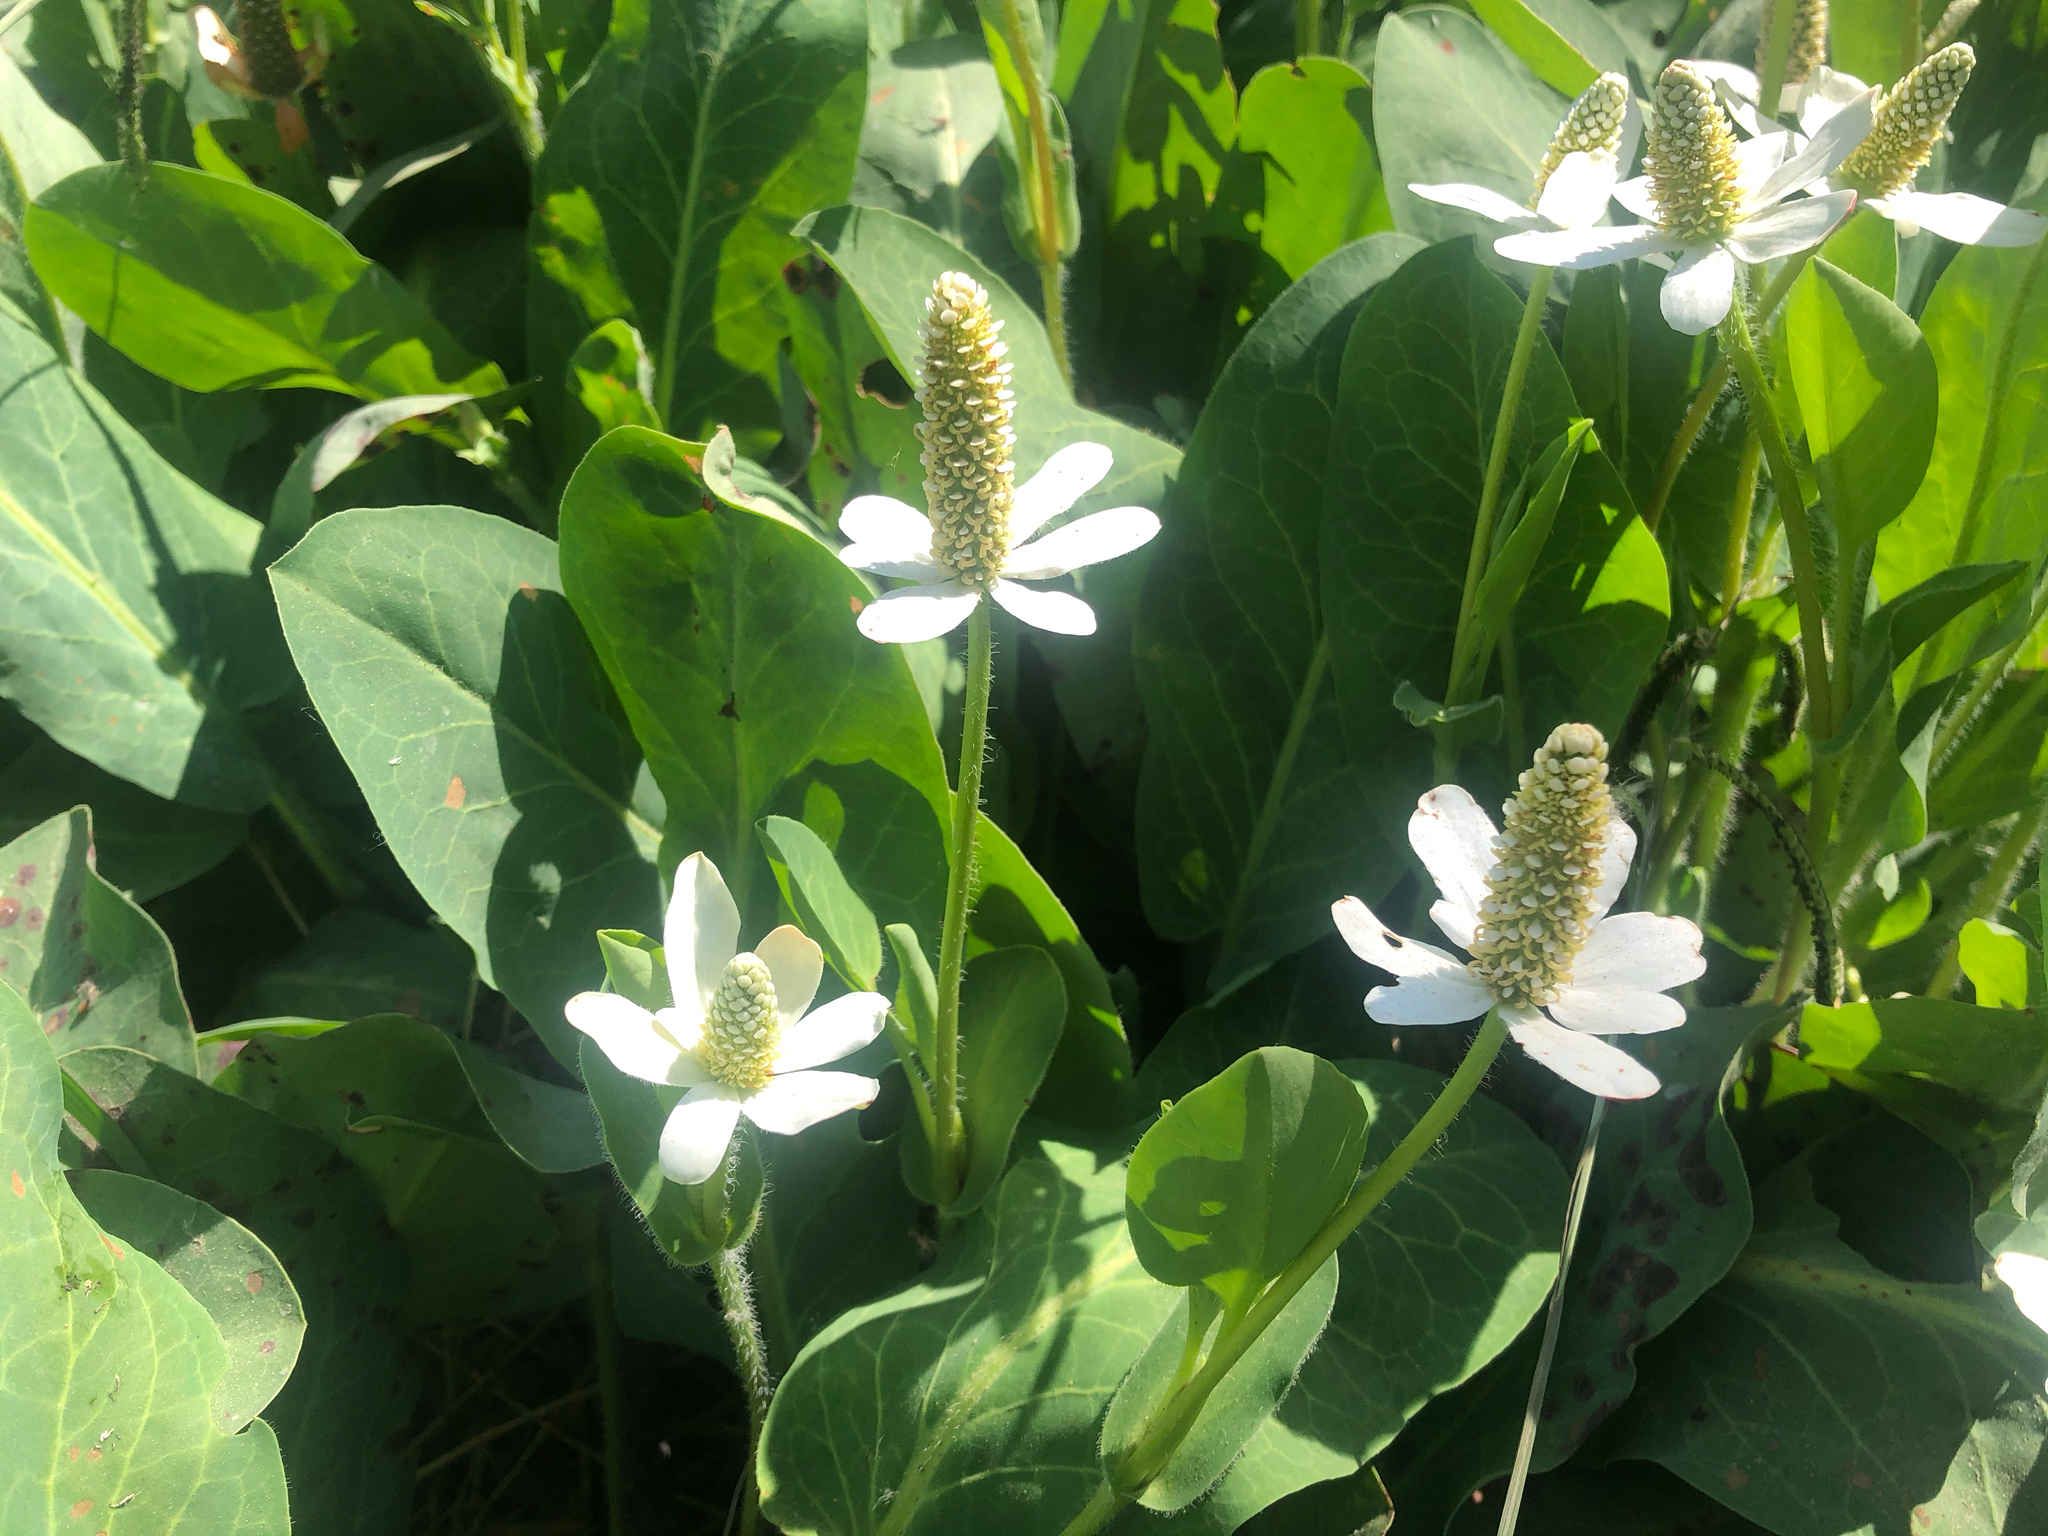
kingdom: Plantae
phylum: Tracheophyta
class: Magnoliopsida
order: Piperales
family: Saururaceae
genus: Anemopsis
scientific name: Anemopsis californica
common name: Apache-beads
